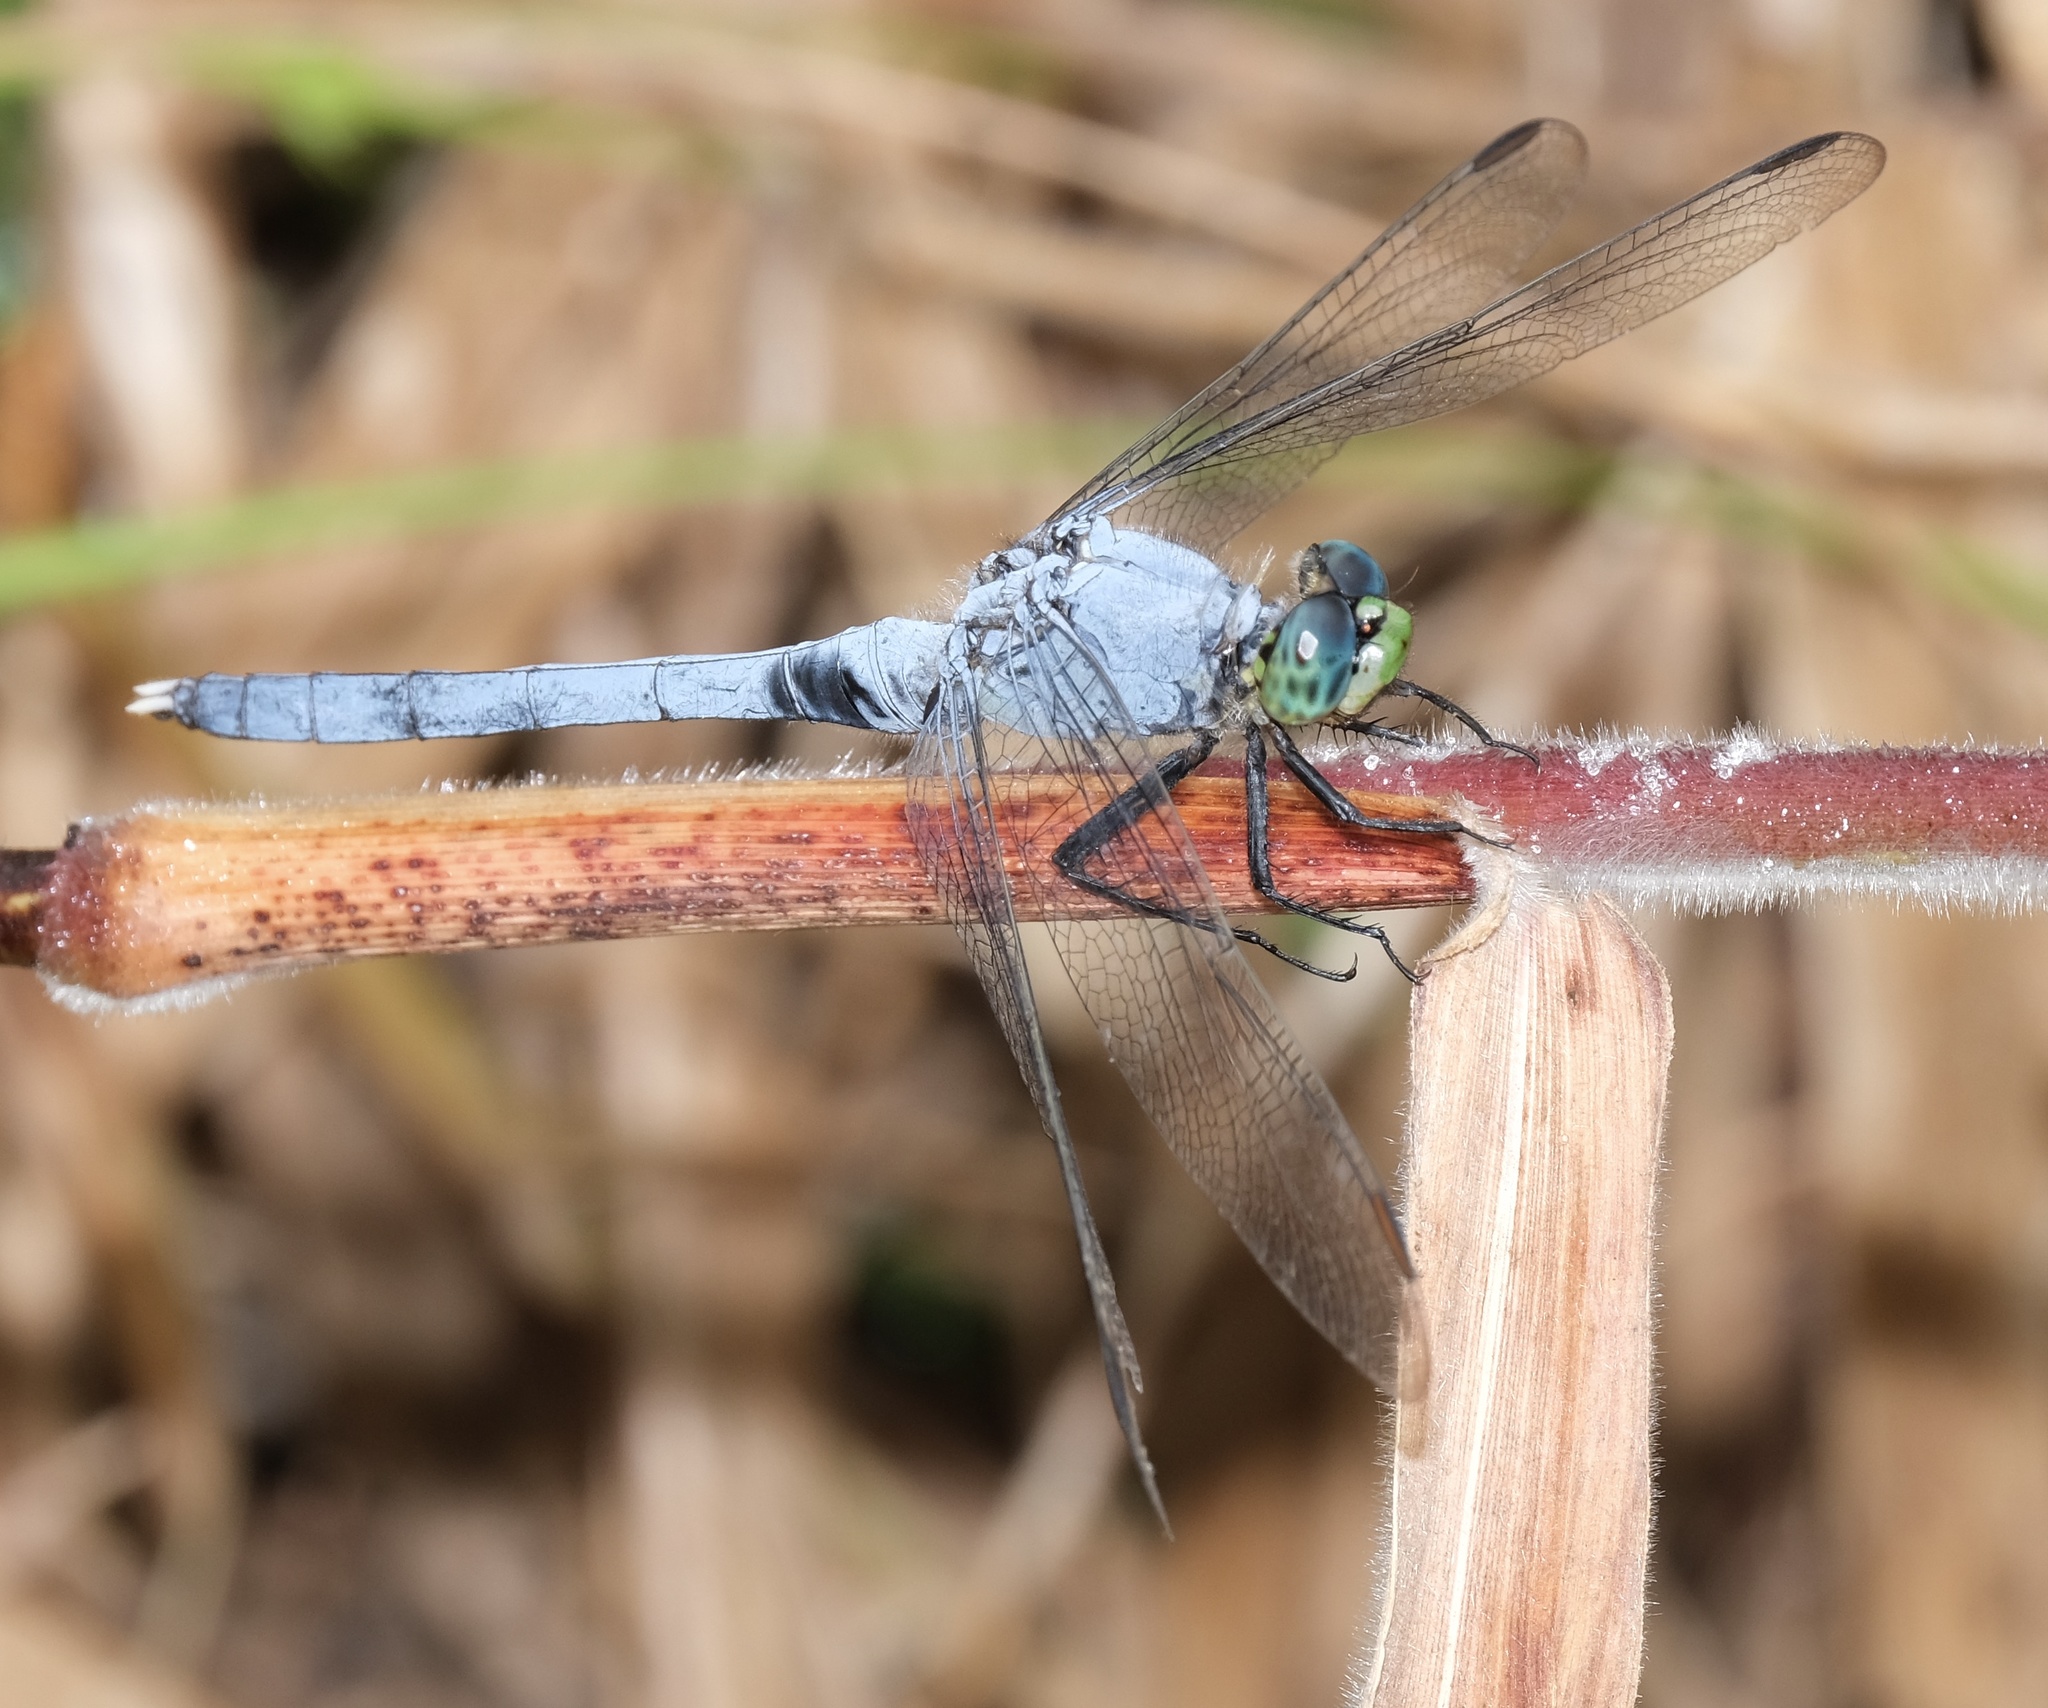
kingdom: Animalia
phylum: Arthropoda
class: Insecta
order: Odonata
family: Libellulidae
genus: Erythemis
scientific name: Erythemis simplicicollis
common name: Eastern pondhawk
